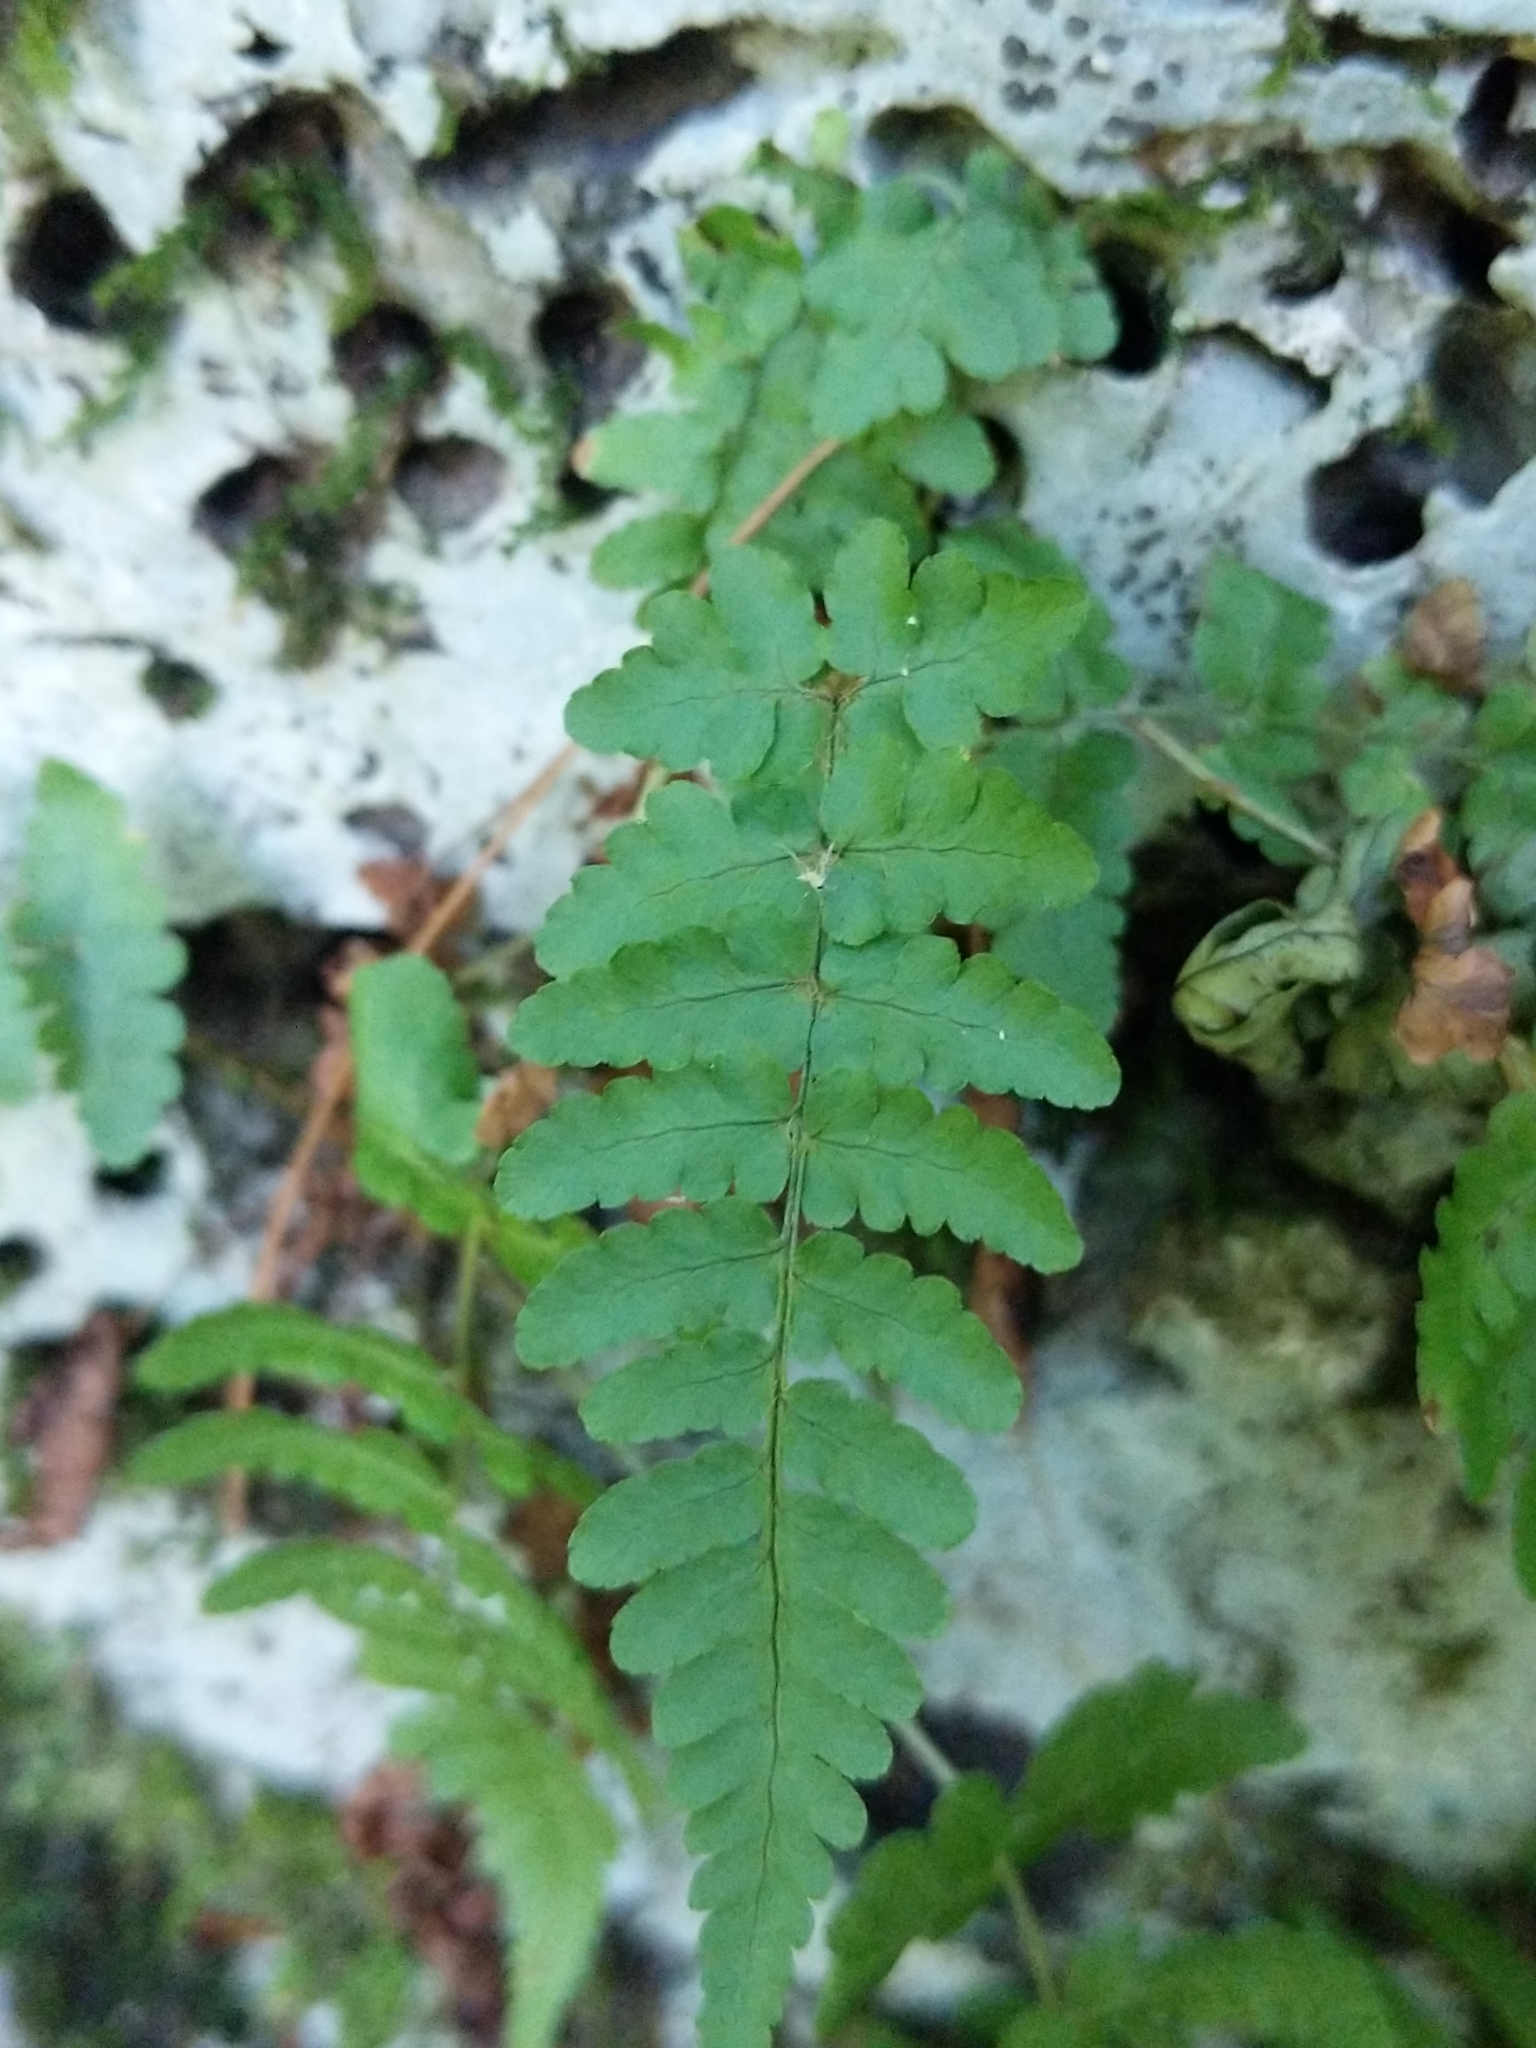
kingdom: Plantae
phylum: Tracheophyta
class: Polypodiopsida
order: Polypodiales
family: Dryopteridaceae
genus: Dryopteris
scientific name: Dryopteris marginalis
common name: Marginal wood fern
